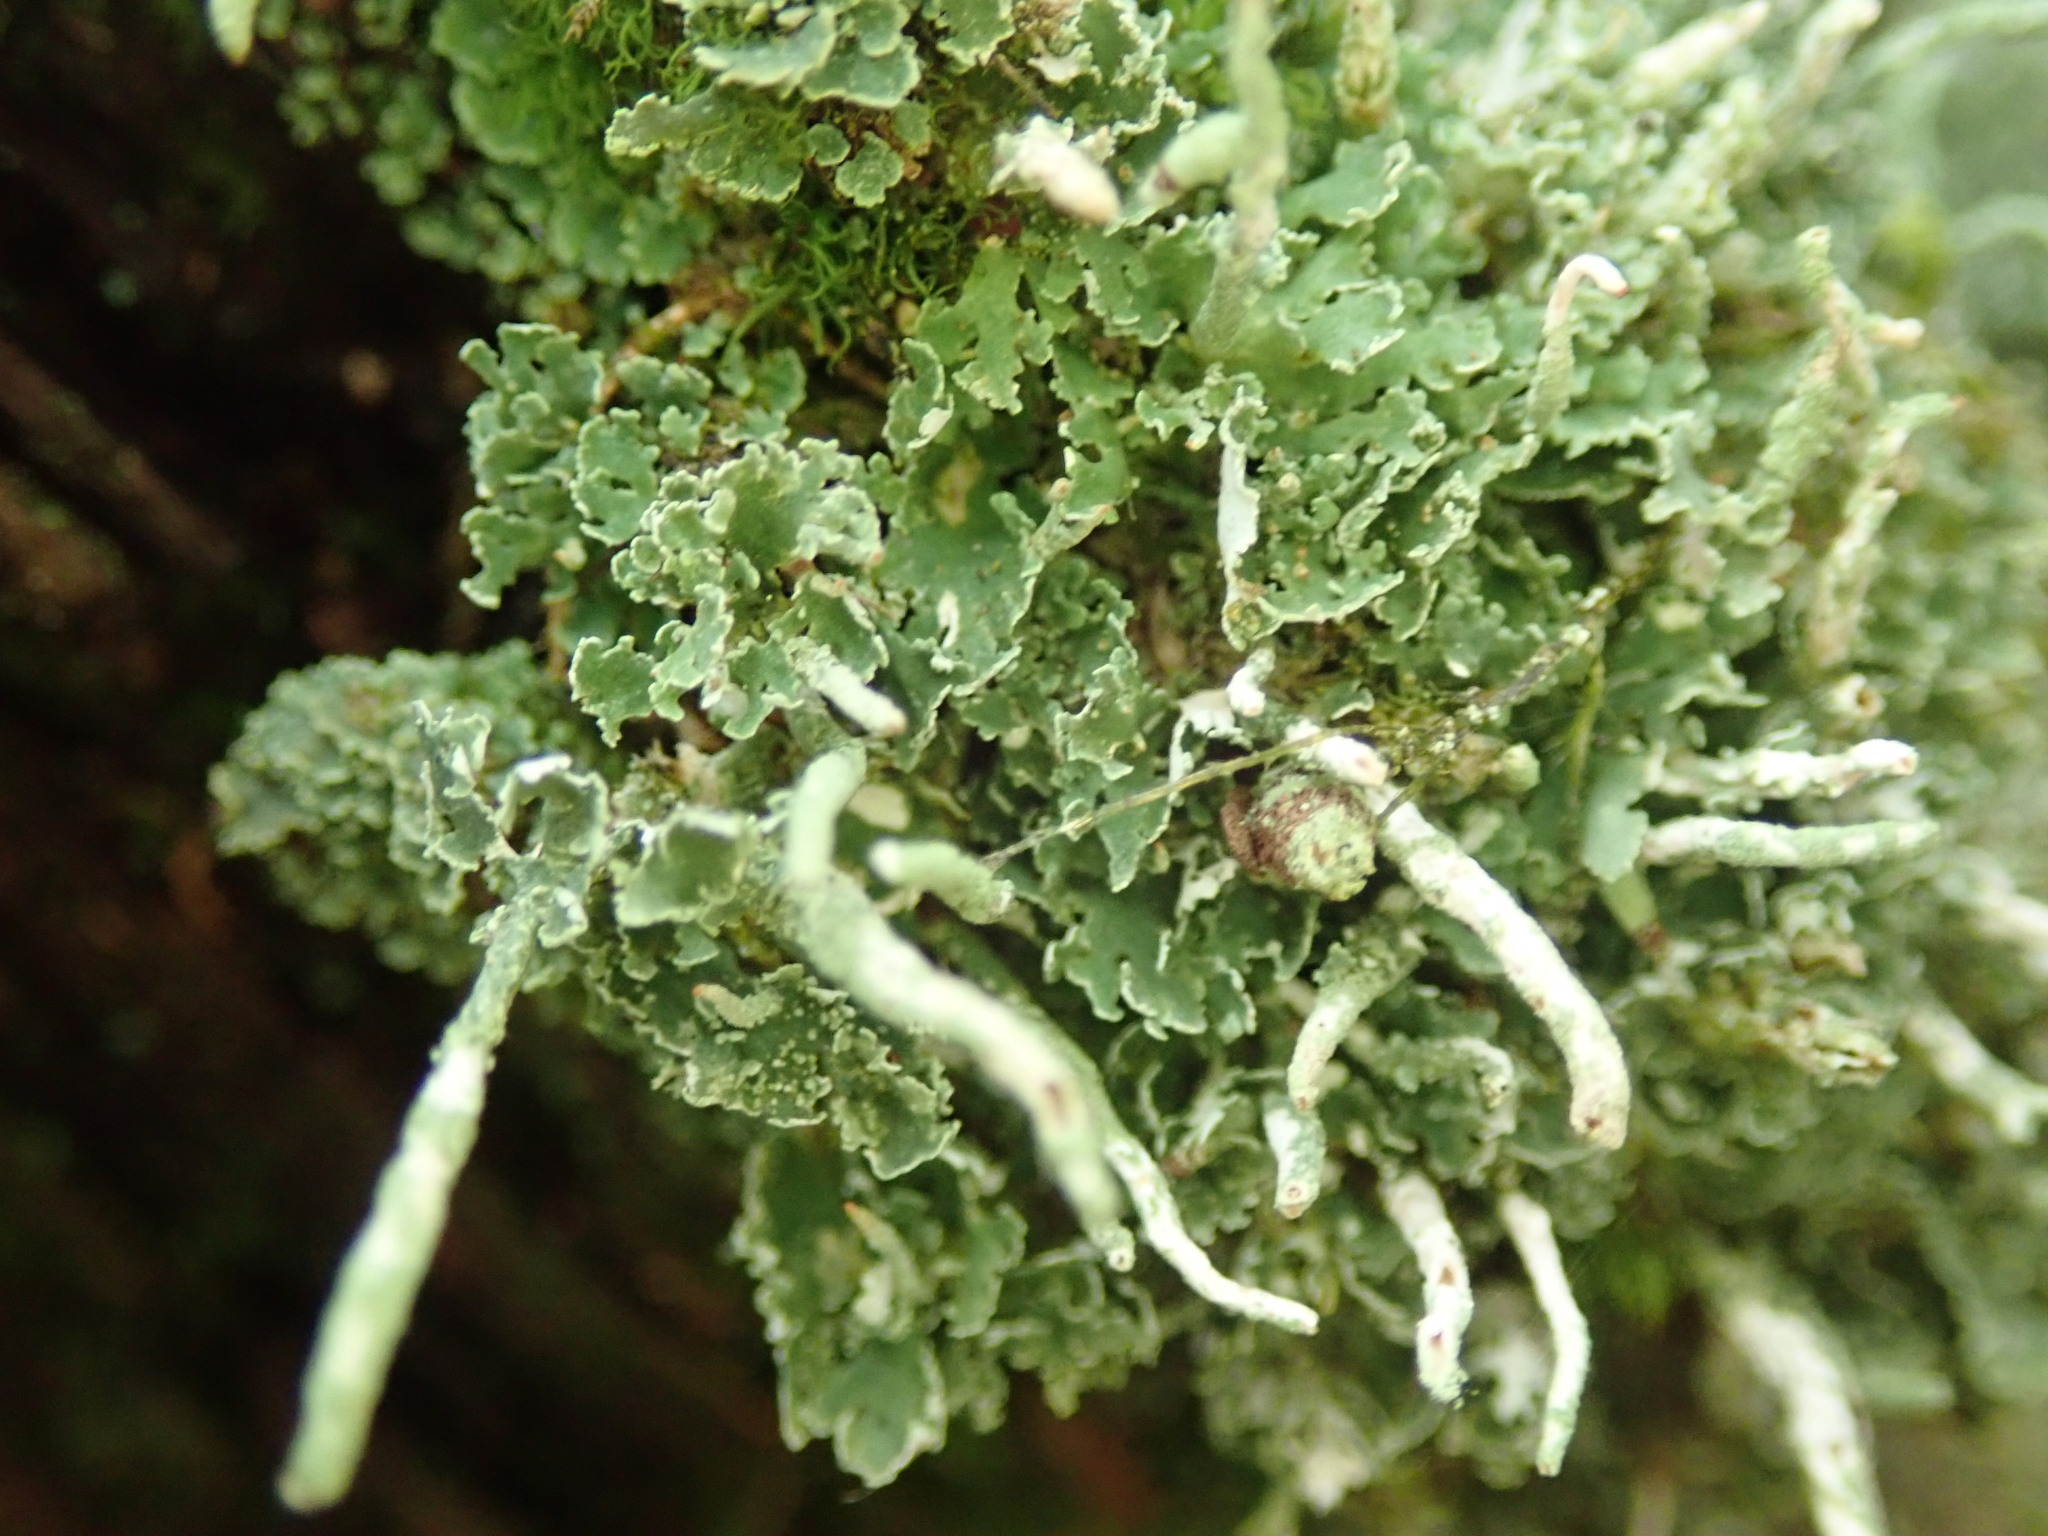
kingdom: Fungi
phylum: Ascomycota
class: Lecanoromycetes
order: Lecanorales
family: Cladoniaceae
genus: Cladonia
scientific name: Cladonia ochrochlora
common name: Smooth-footed powderhorn
